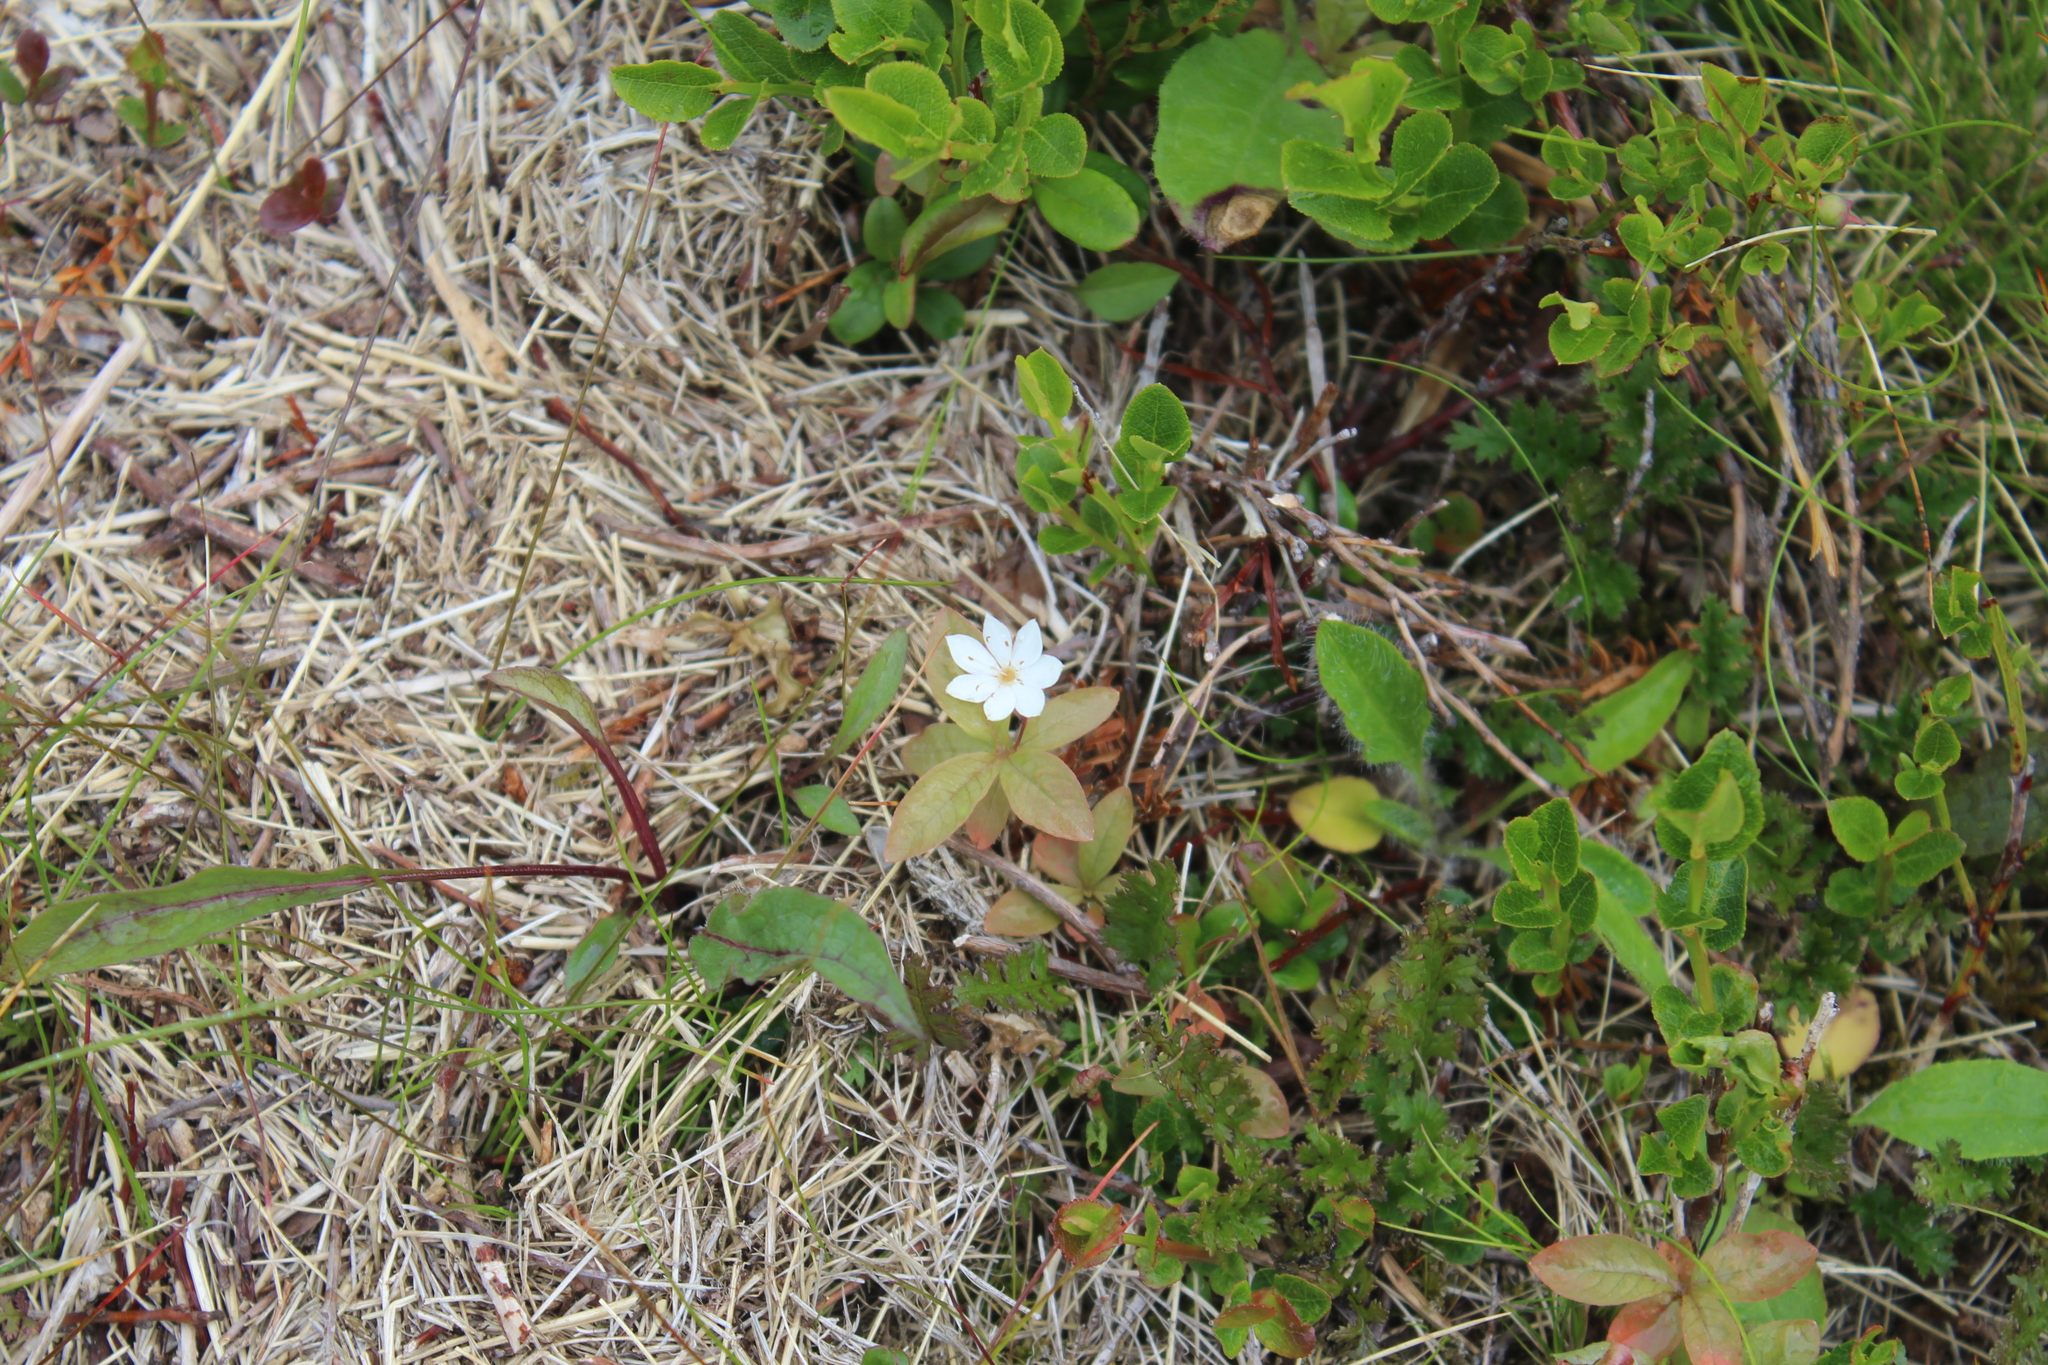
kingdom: Plantae
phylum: Tracheophyta
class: Magnoliopsida
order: Ericales
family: Primulaceae
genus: Lysimachia
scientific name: Lysimachia europaea
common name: Arctic starflower
